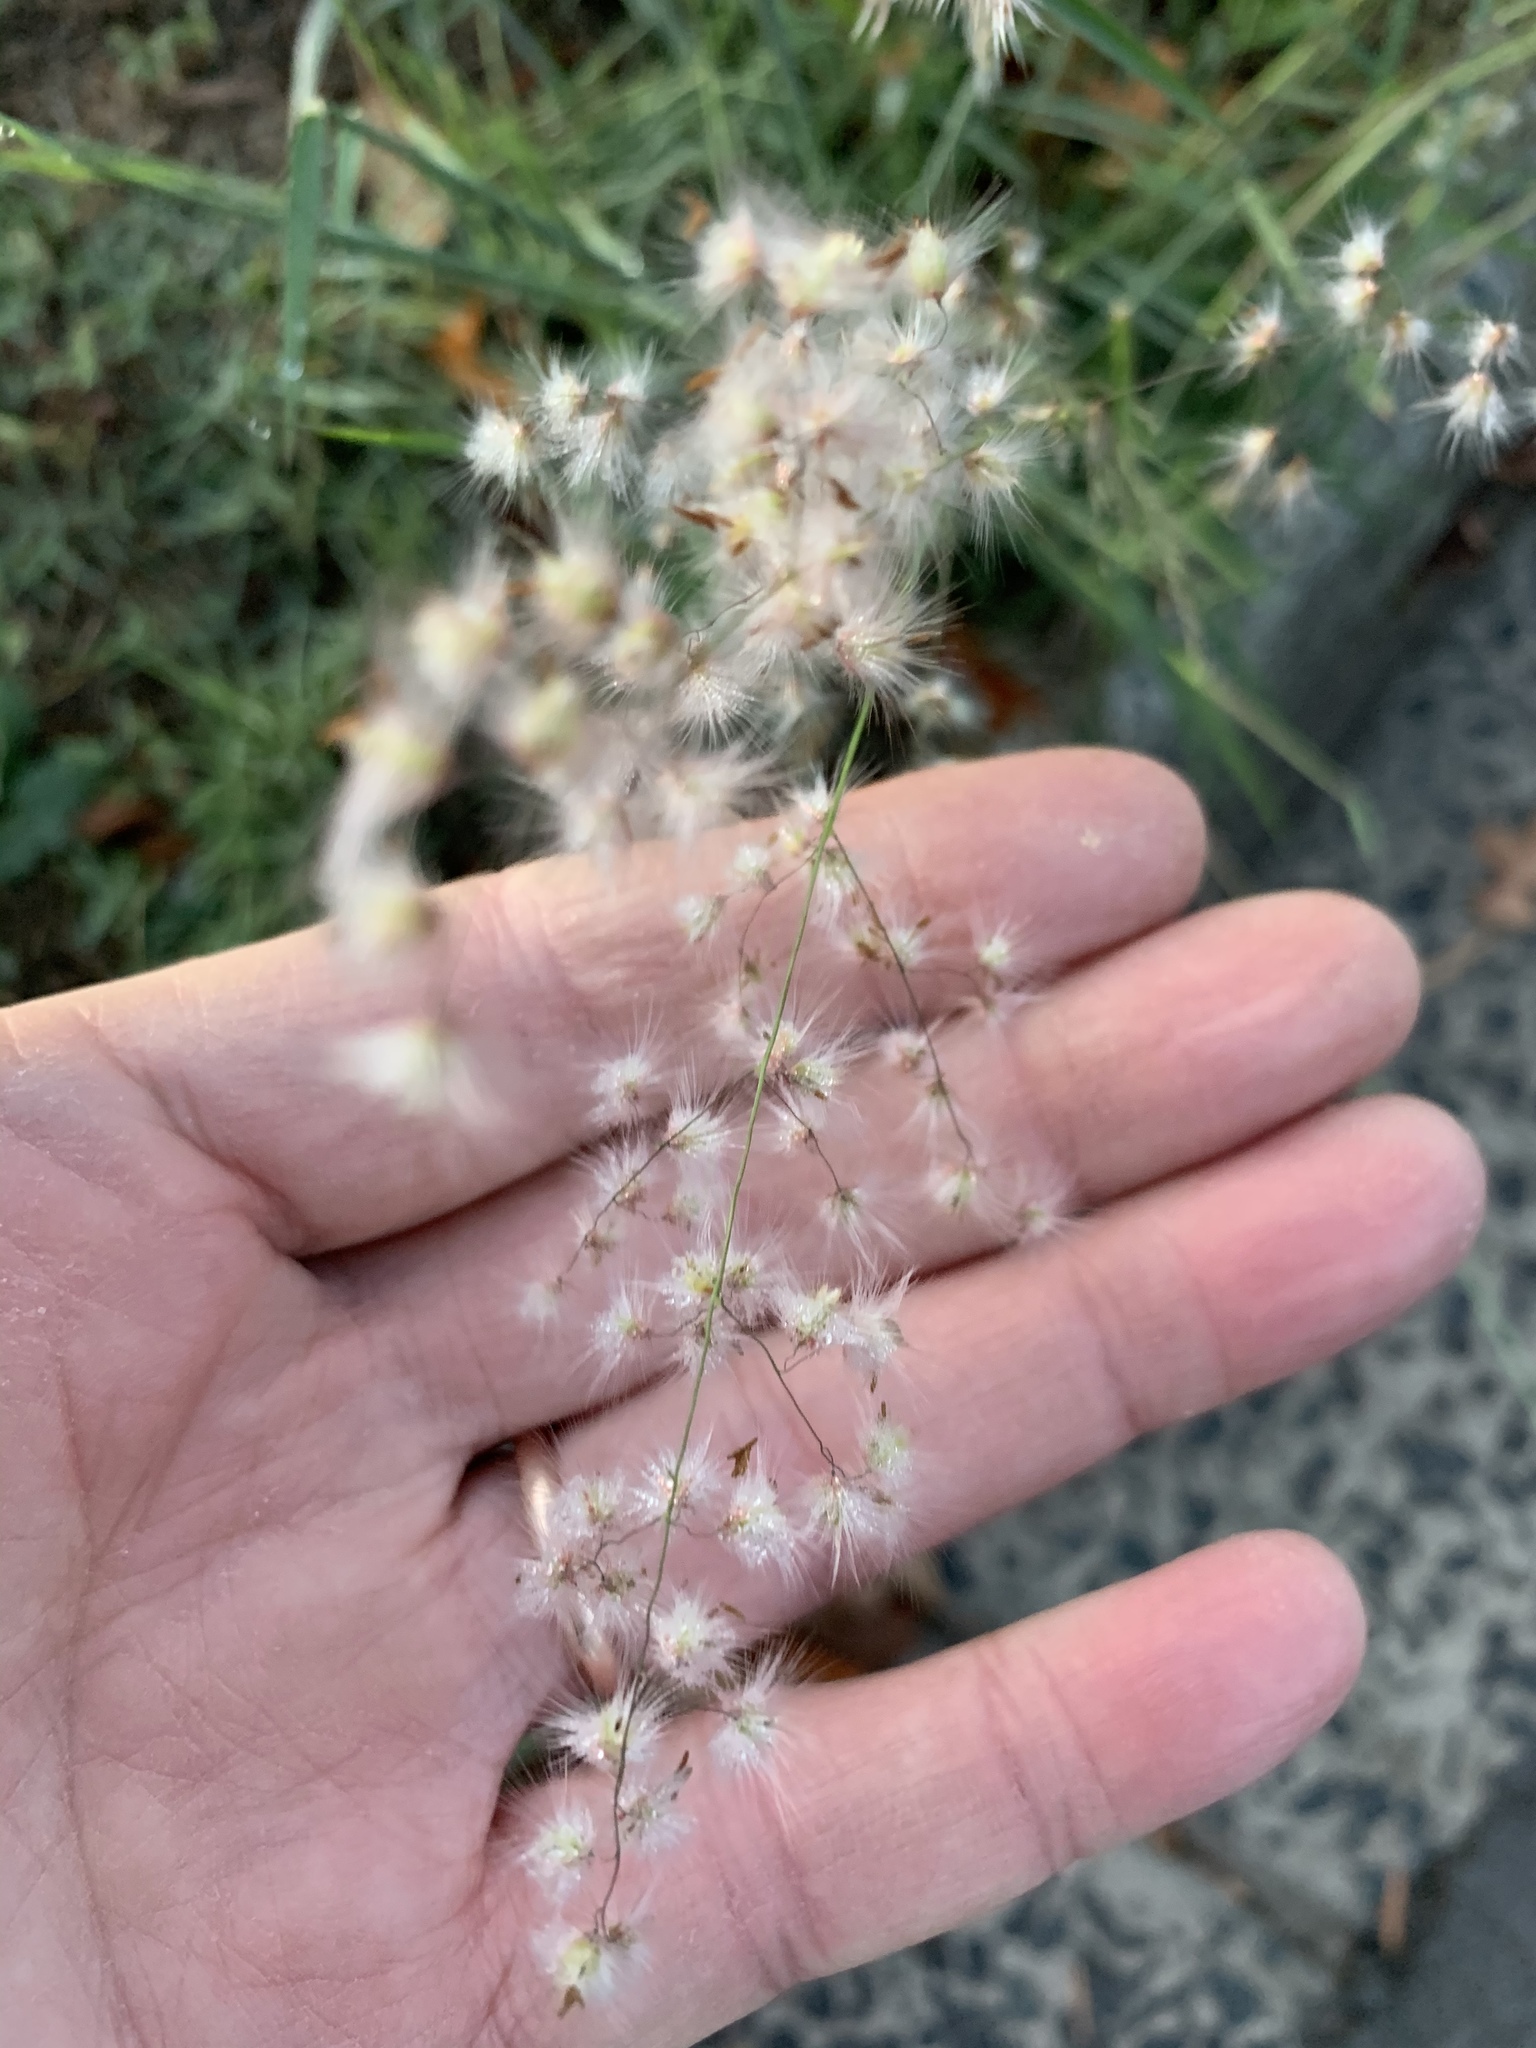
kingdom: Plantae
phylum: Tracheophyta
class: Liliopsida
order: Poales
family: Poaceae
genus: Melinis
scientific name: Melinis repens
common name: Rose natal grass
